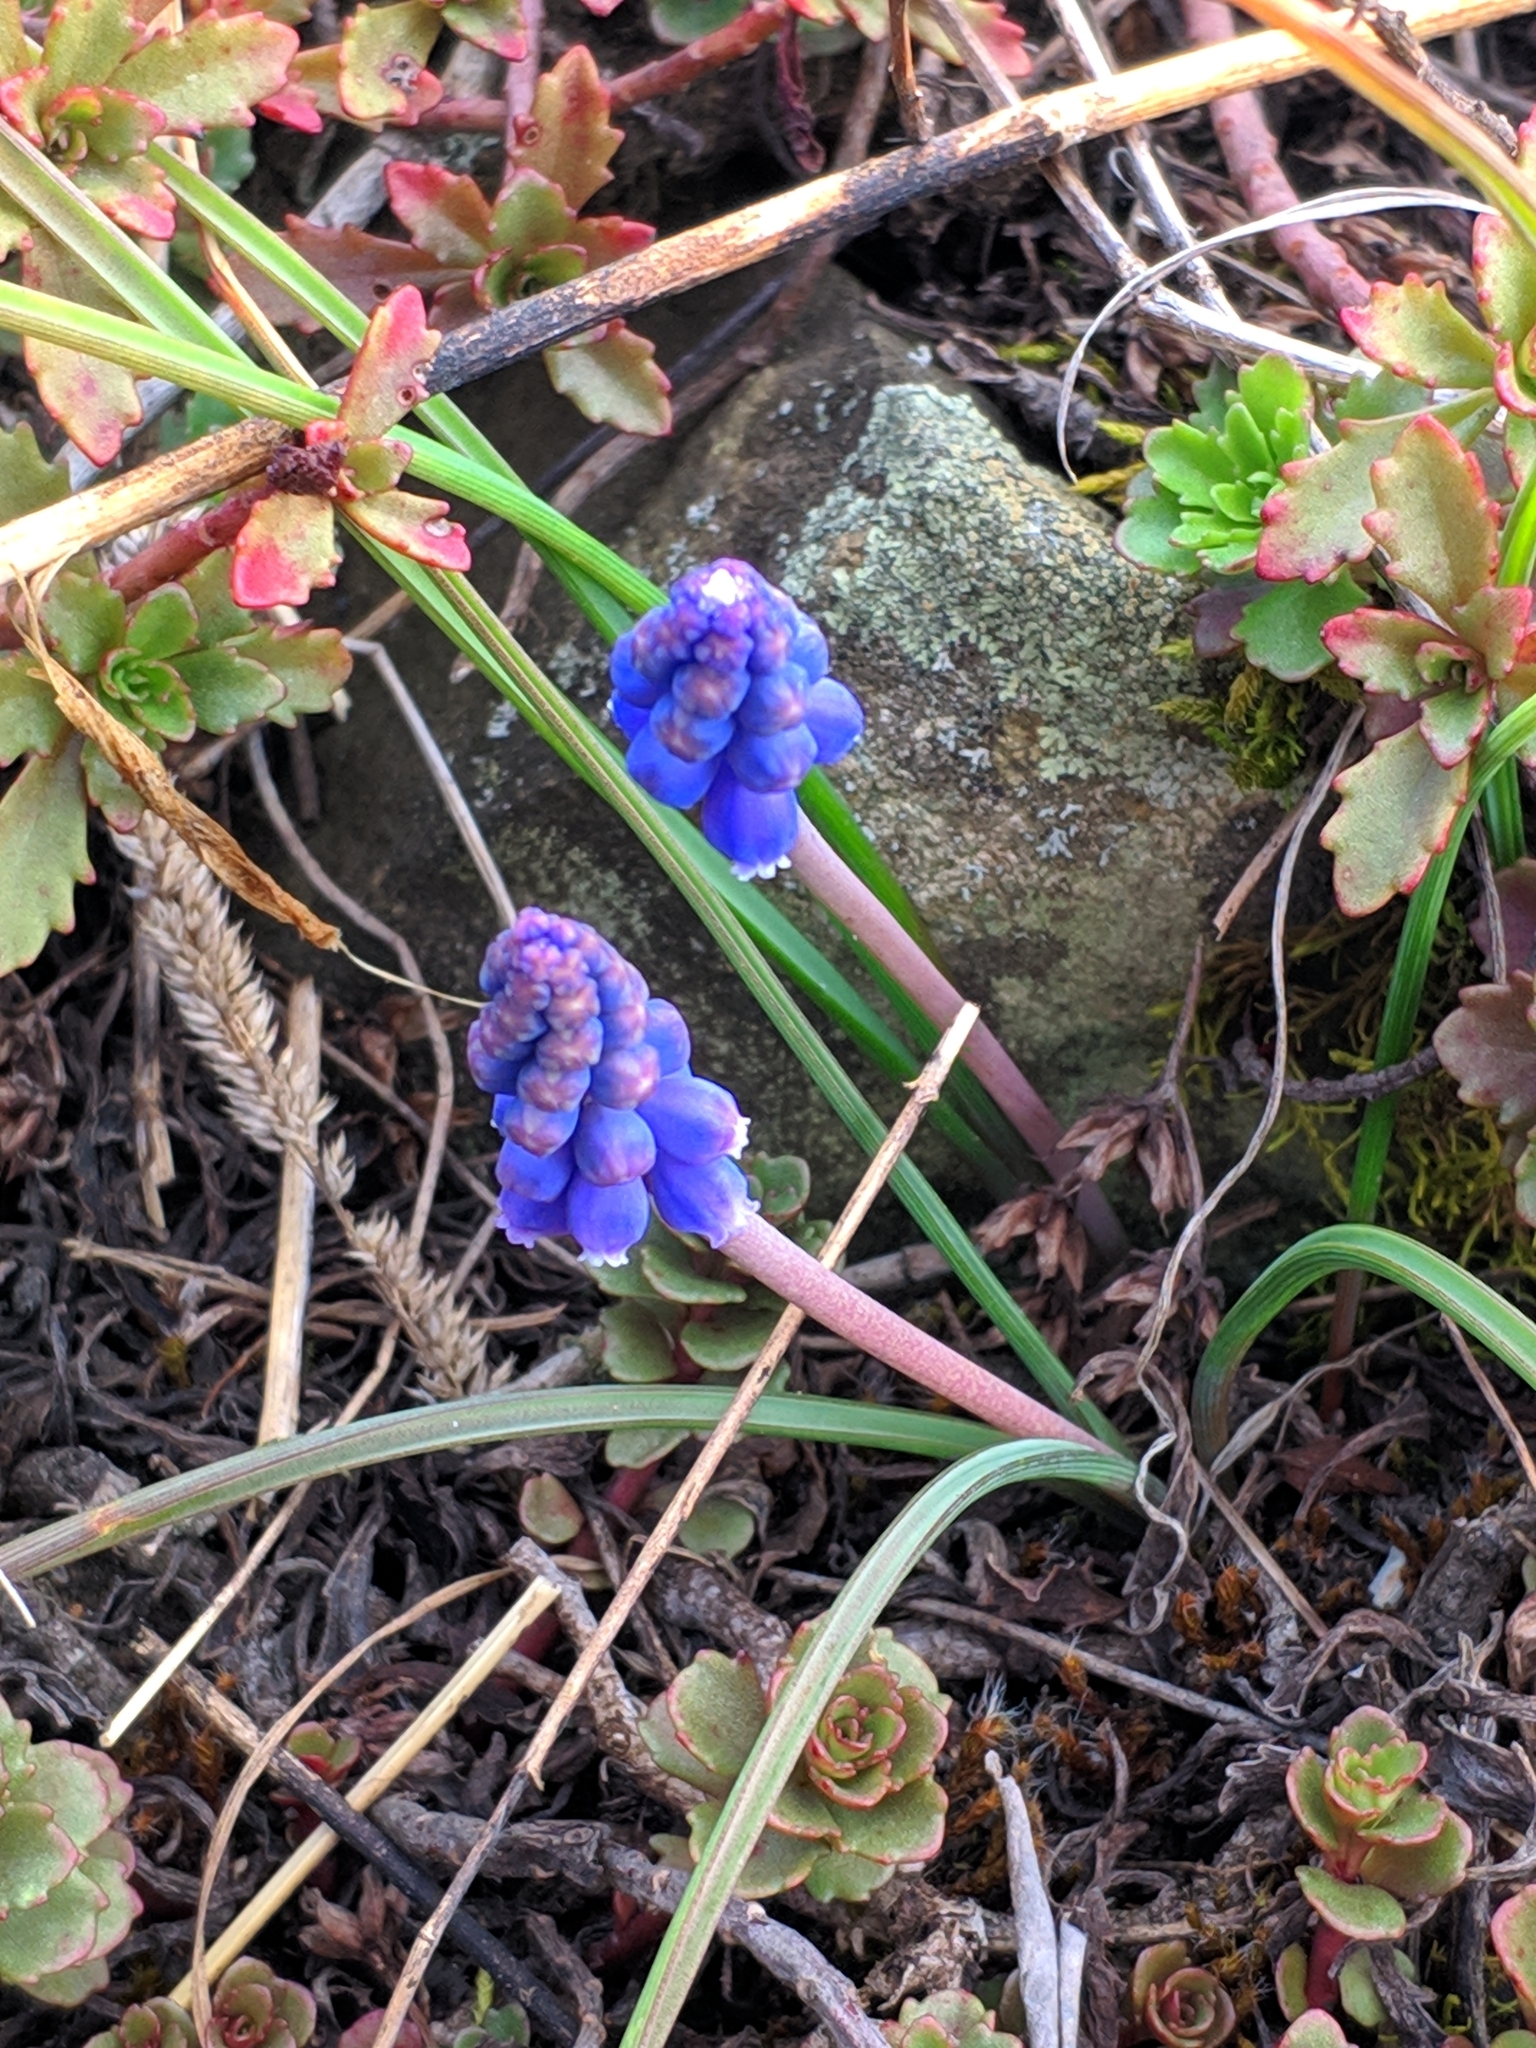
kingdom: Plantae
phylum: Tracheophyta
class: Liliopsida
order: Asparagales
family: Asparagaceae
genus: Muscari
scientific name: Muscari neglectum
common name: Grape-hyacinth
